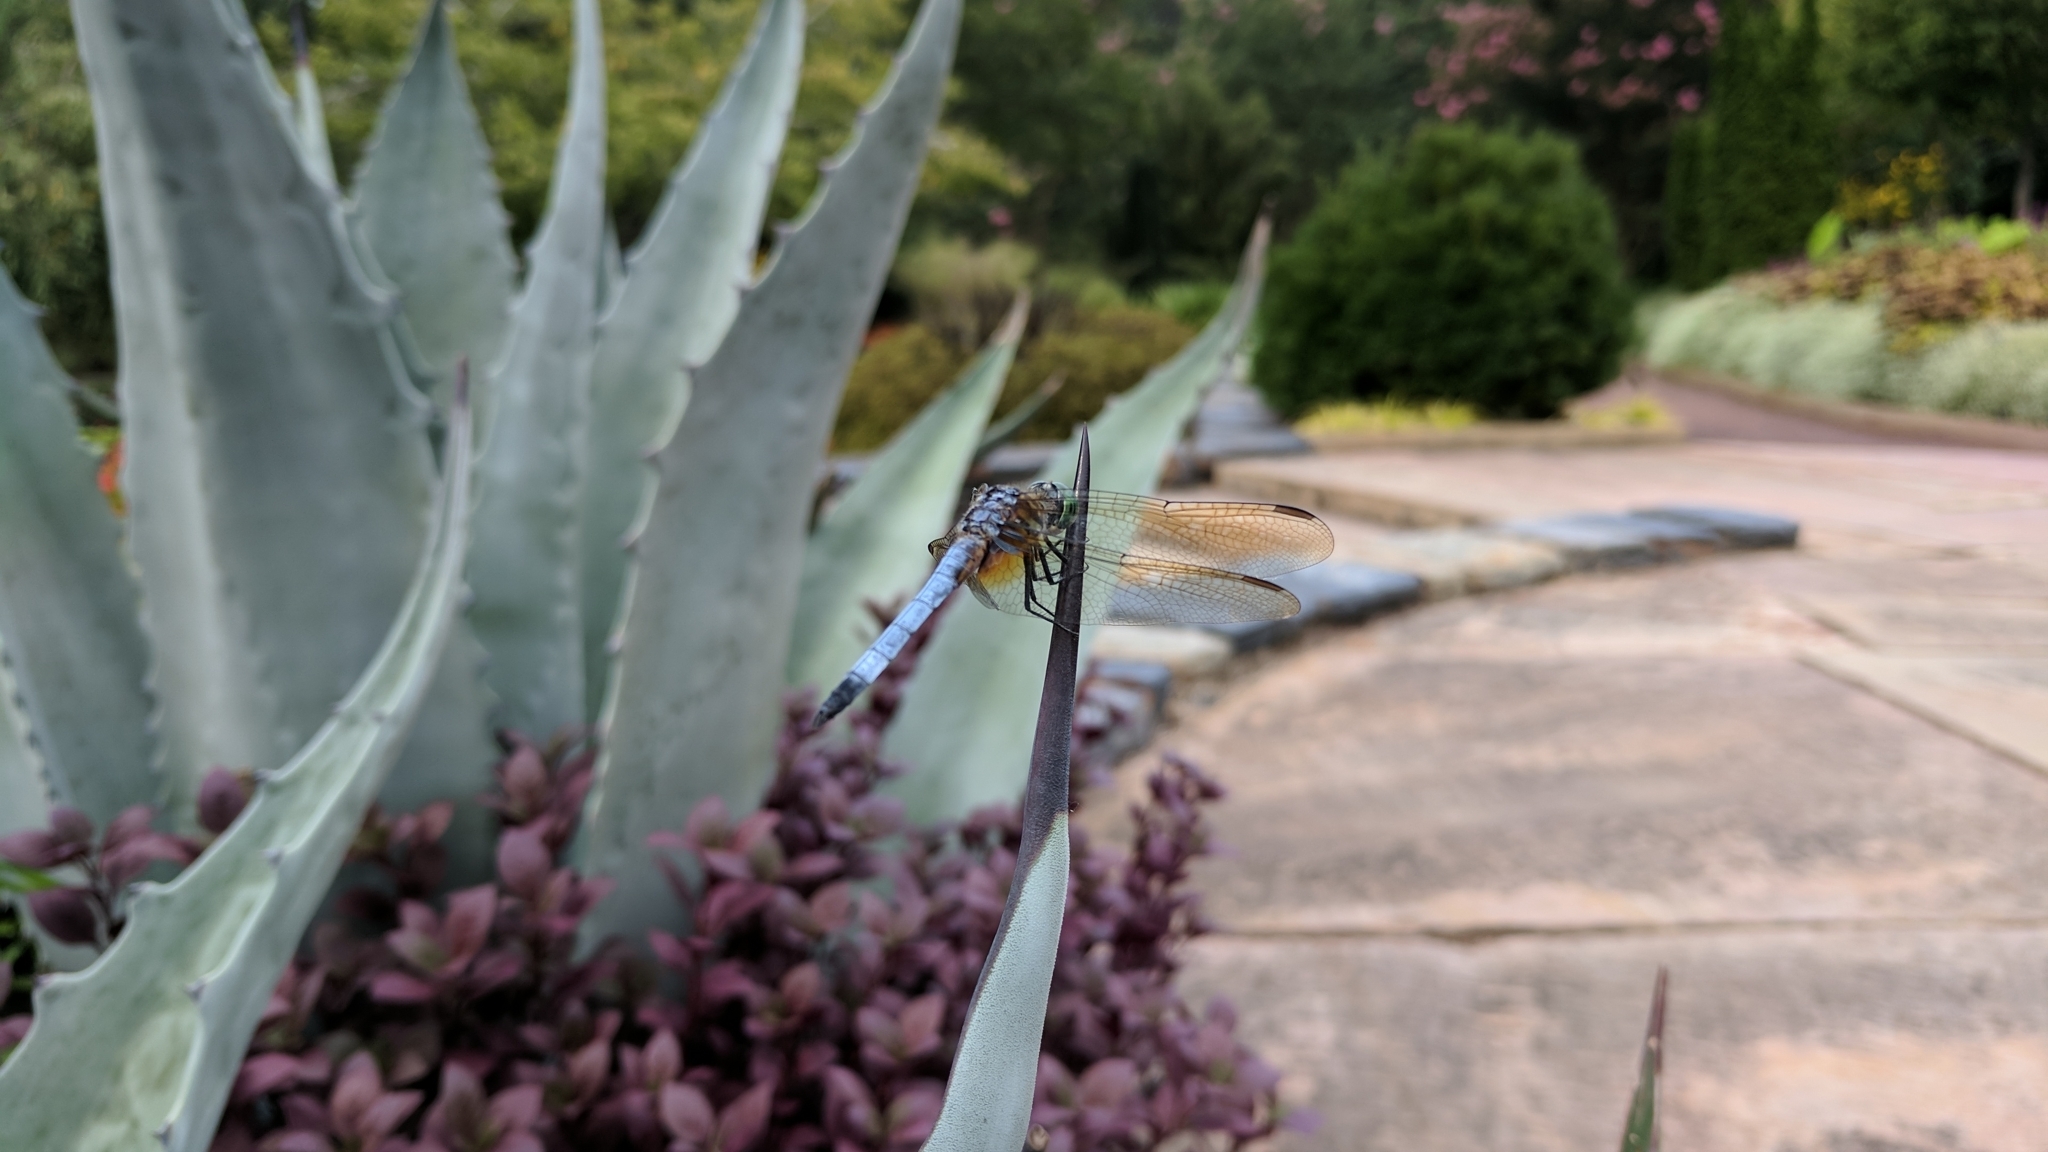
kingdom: Animalia
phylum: Arthropoda
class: Insecta
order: Odonata
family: Libellulidae
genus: Pachydiplax
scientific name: Pachydiplax longipennis
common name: Blue dasher
